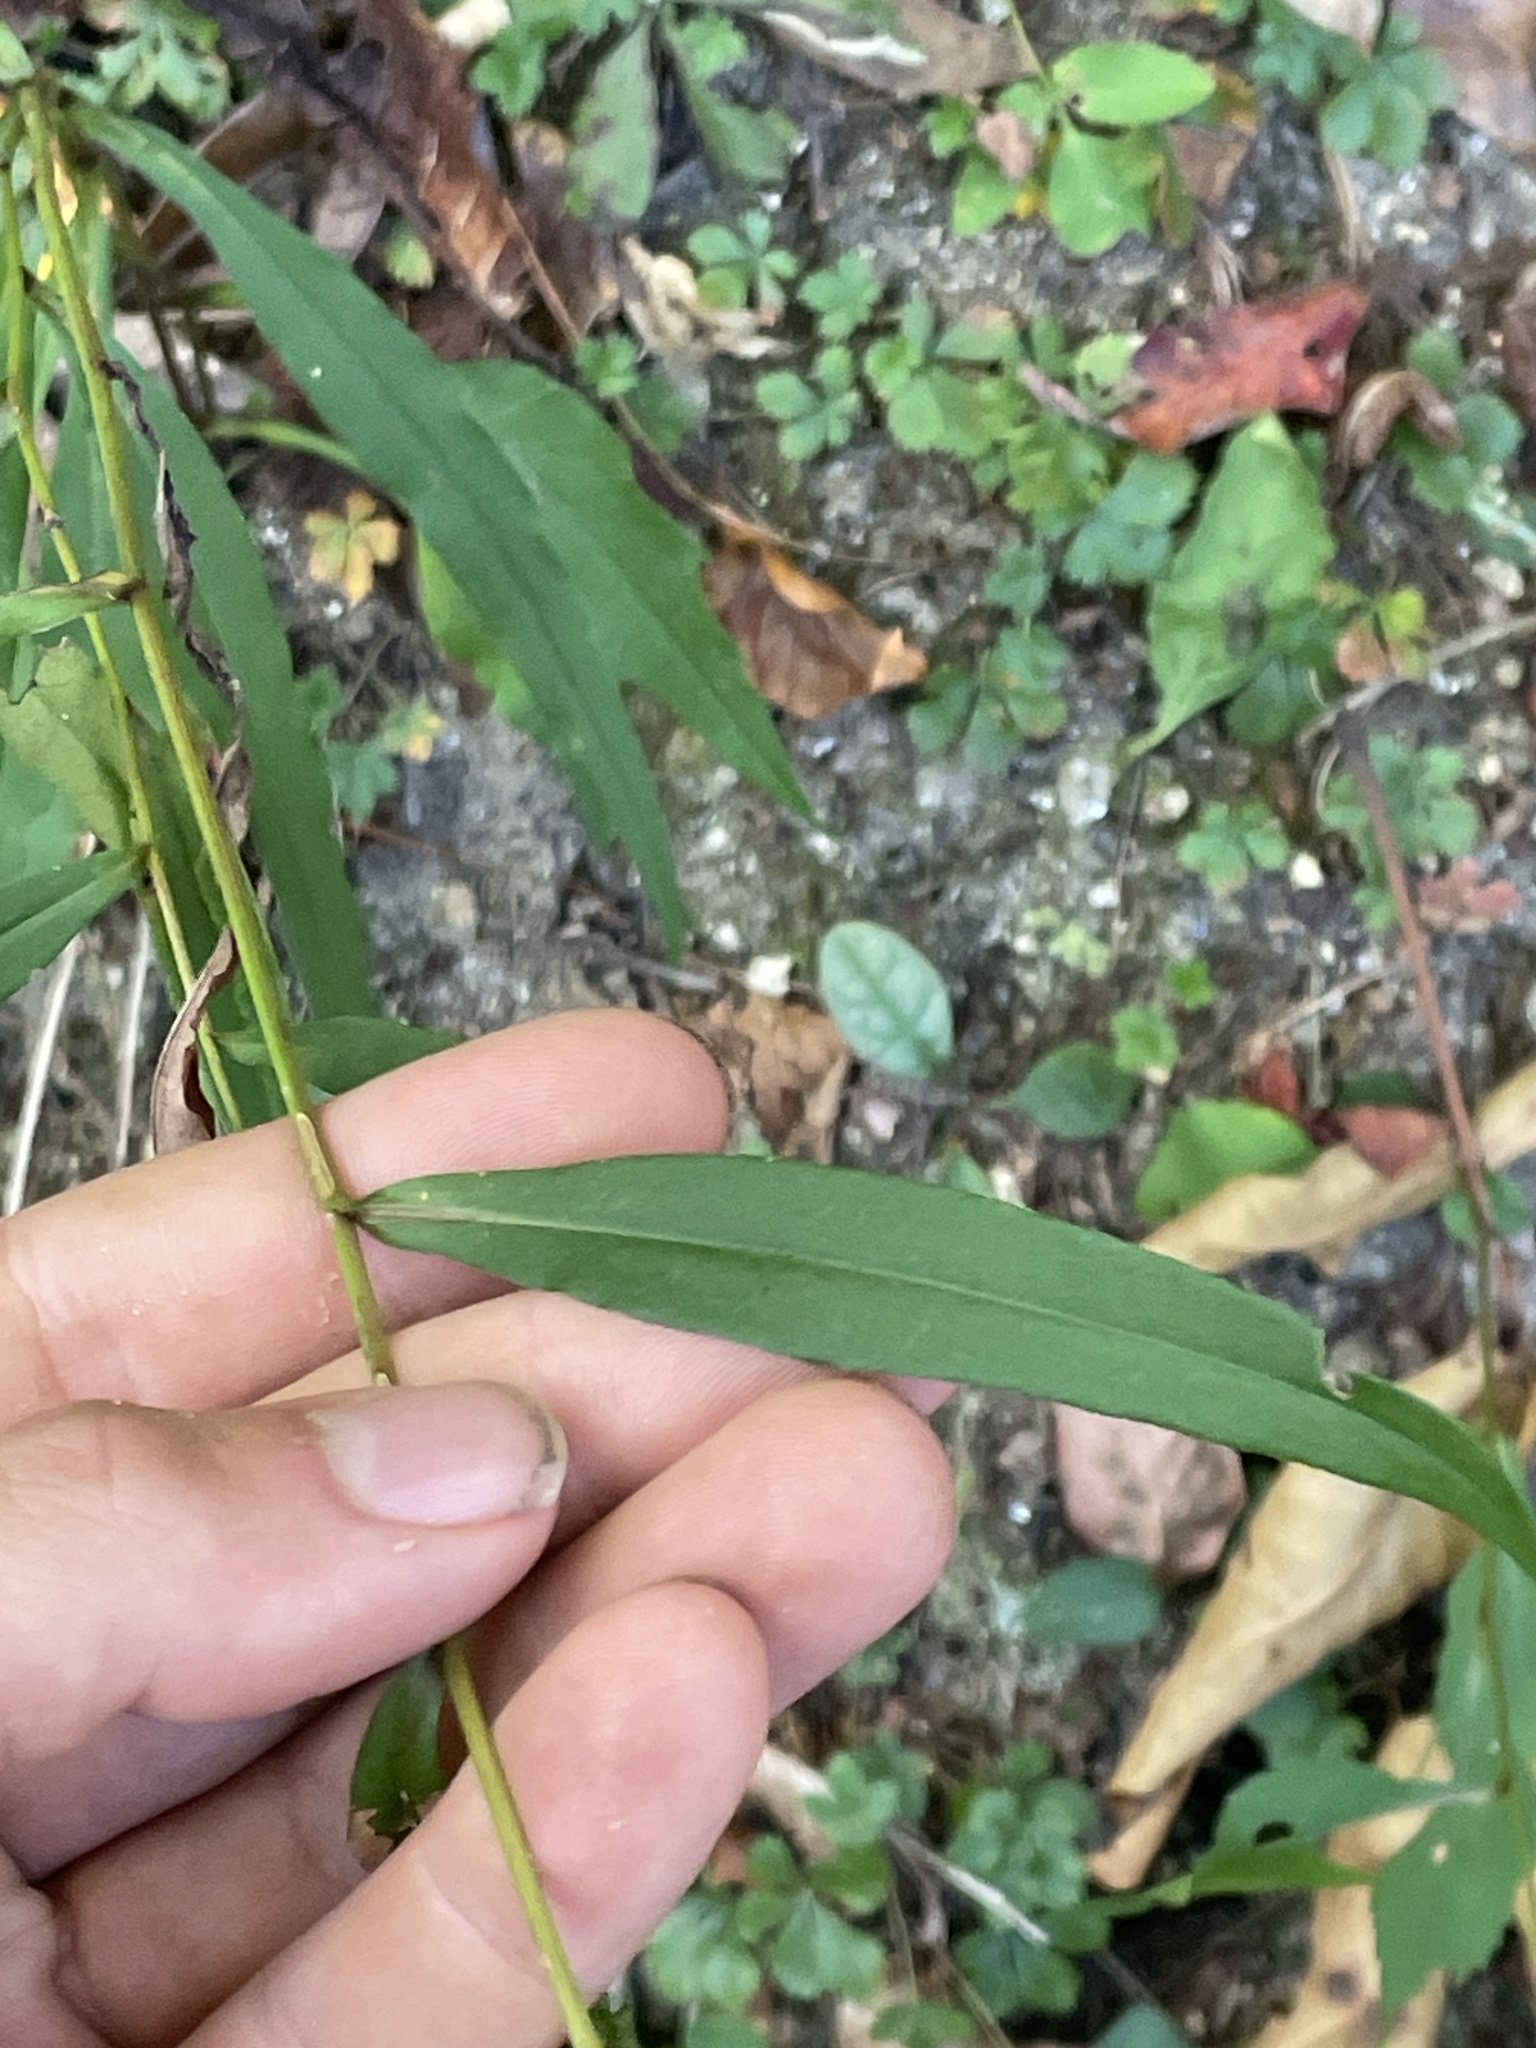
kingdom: Plantae
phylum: Tracheophyta
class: Magnoliopsida
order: Asterales
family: Asteraceae
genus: Symphyotrichum
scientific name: Symphyotrichum retroflexum
